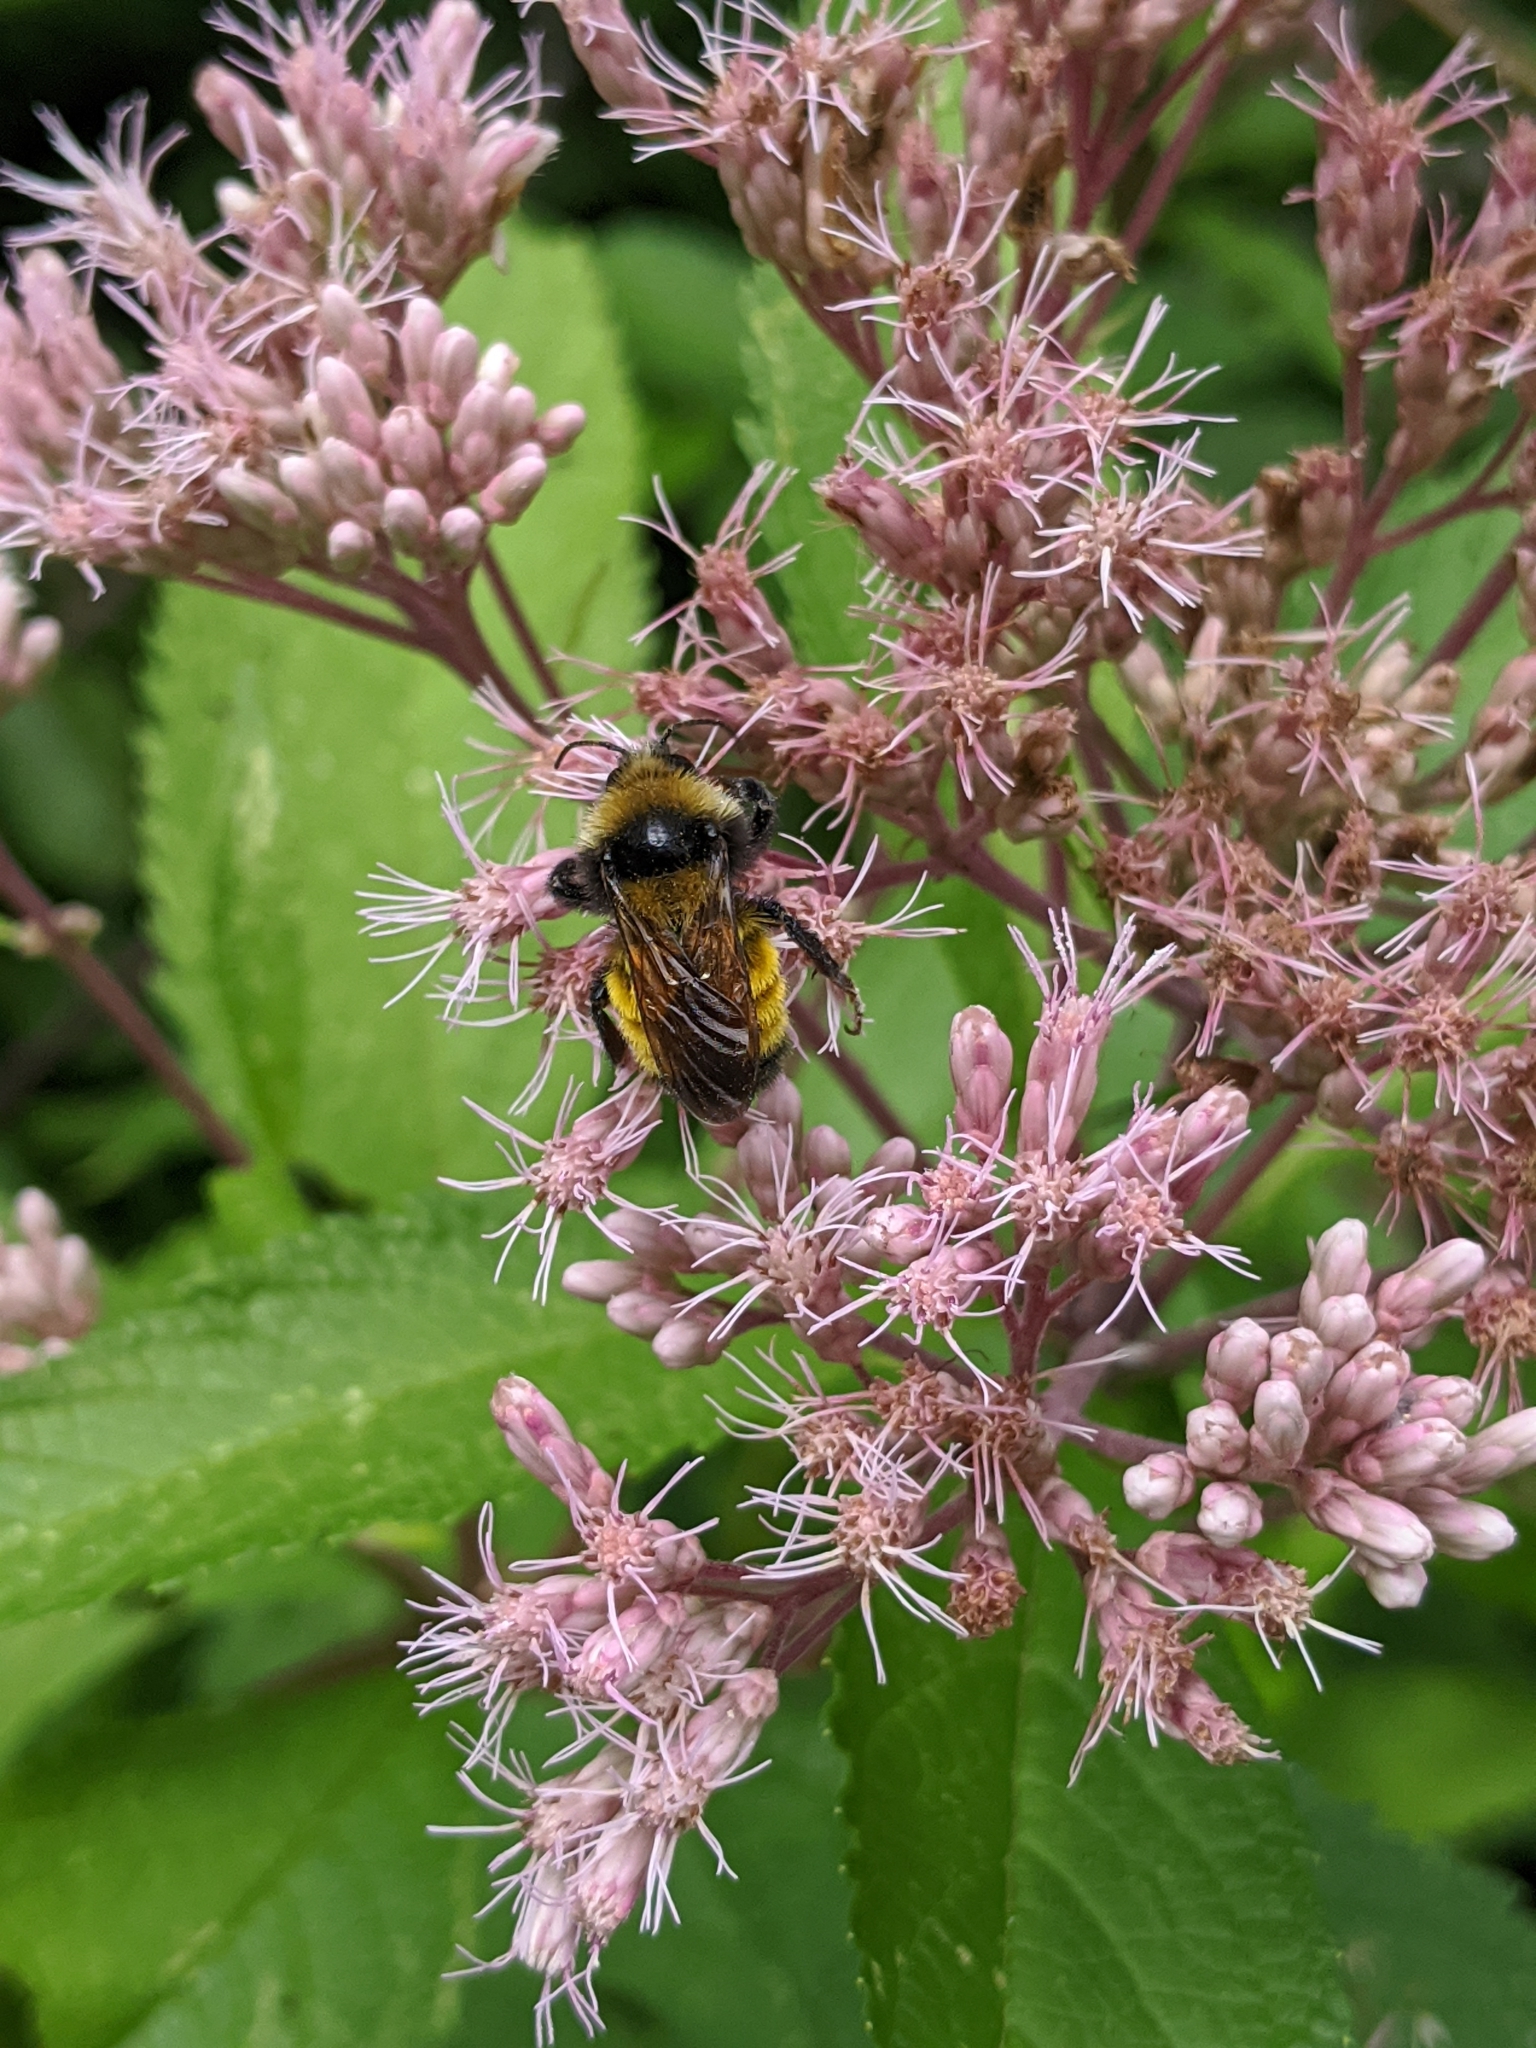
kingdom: Animalia
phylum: Arthropoda
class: Insecta
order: Hymenoptera
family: Apidae
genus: Bombus
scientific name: Bombus borealis
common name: Northern amber bumble bee
